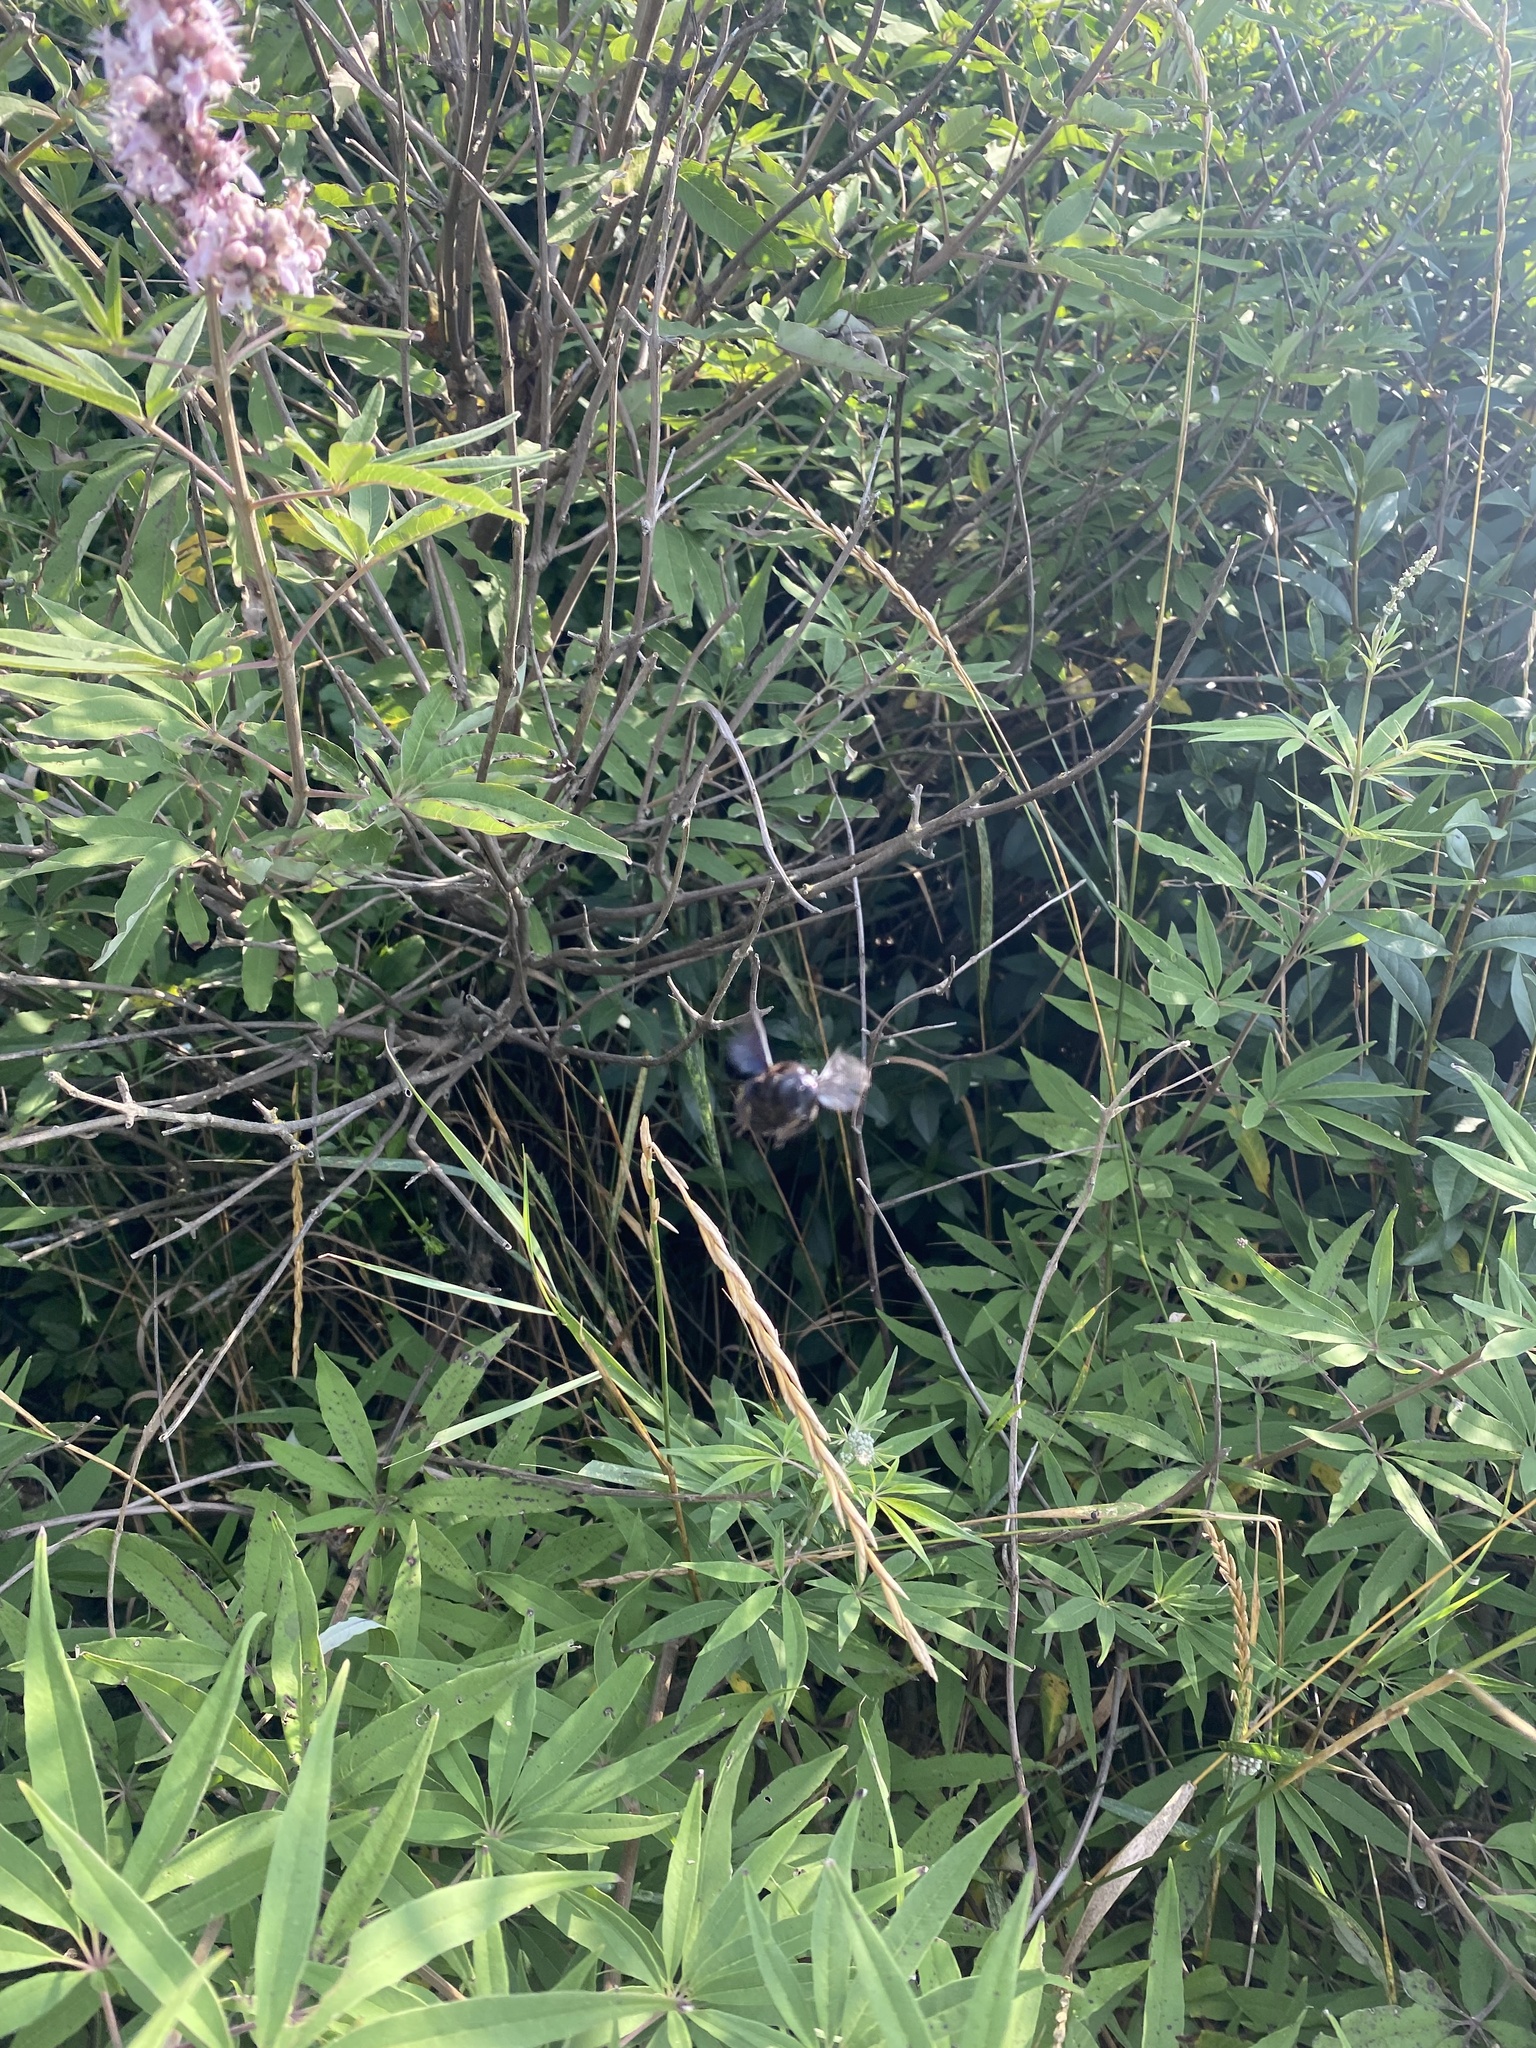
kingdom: Plantae
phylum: Tracheophyta
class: Magnoliopsida
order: Lamiales
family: Lamiaceae
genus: Vitex
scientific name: Vitex agnus-castus
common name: Chasteberry
